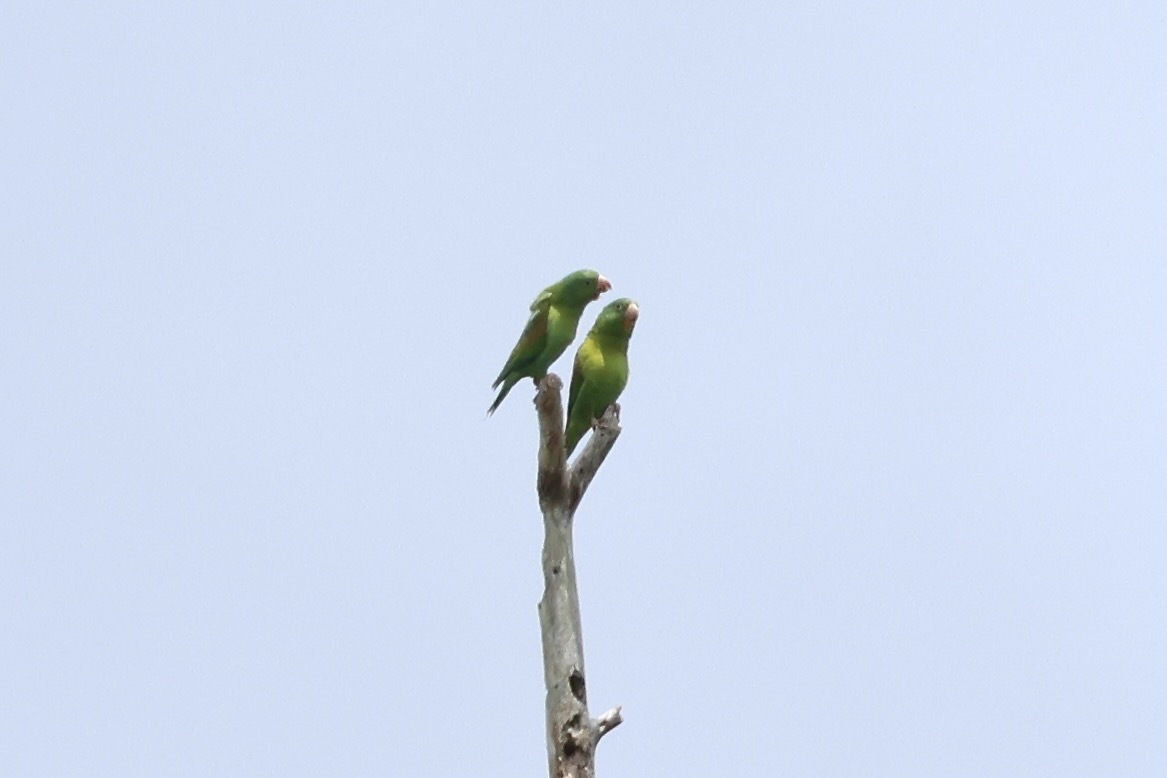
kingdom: Animalia
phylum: Chordata
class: Aves
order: Psittaciformes
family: Psittacidae
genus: Brotogeris
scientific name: Brotogeris jugularis
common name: Orange-chinned parakeet
